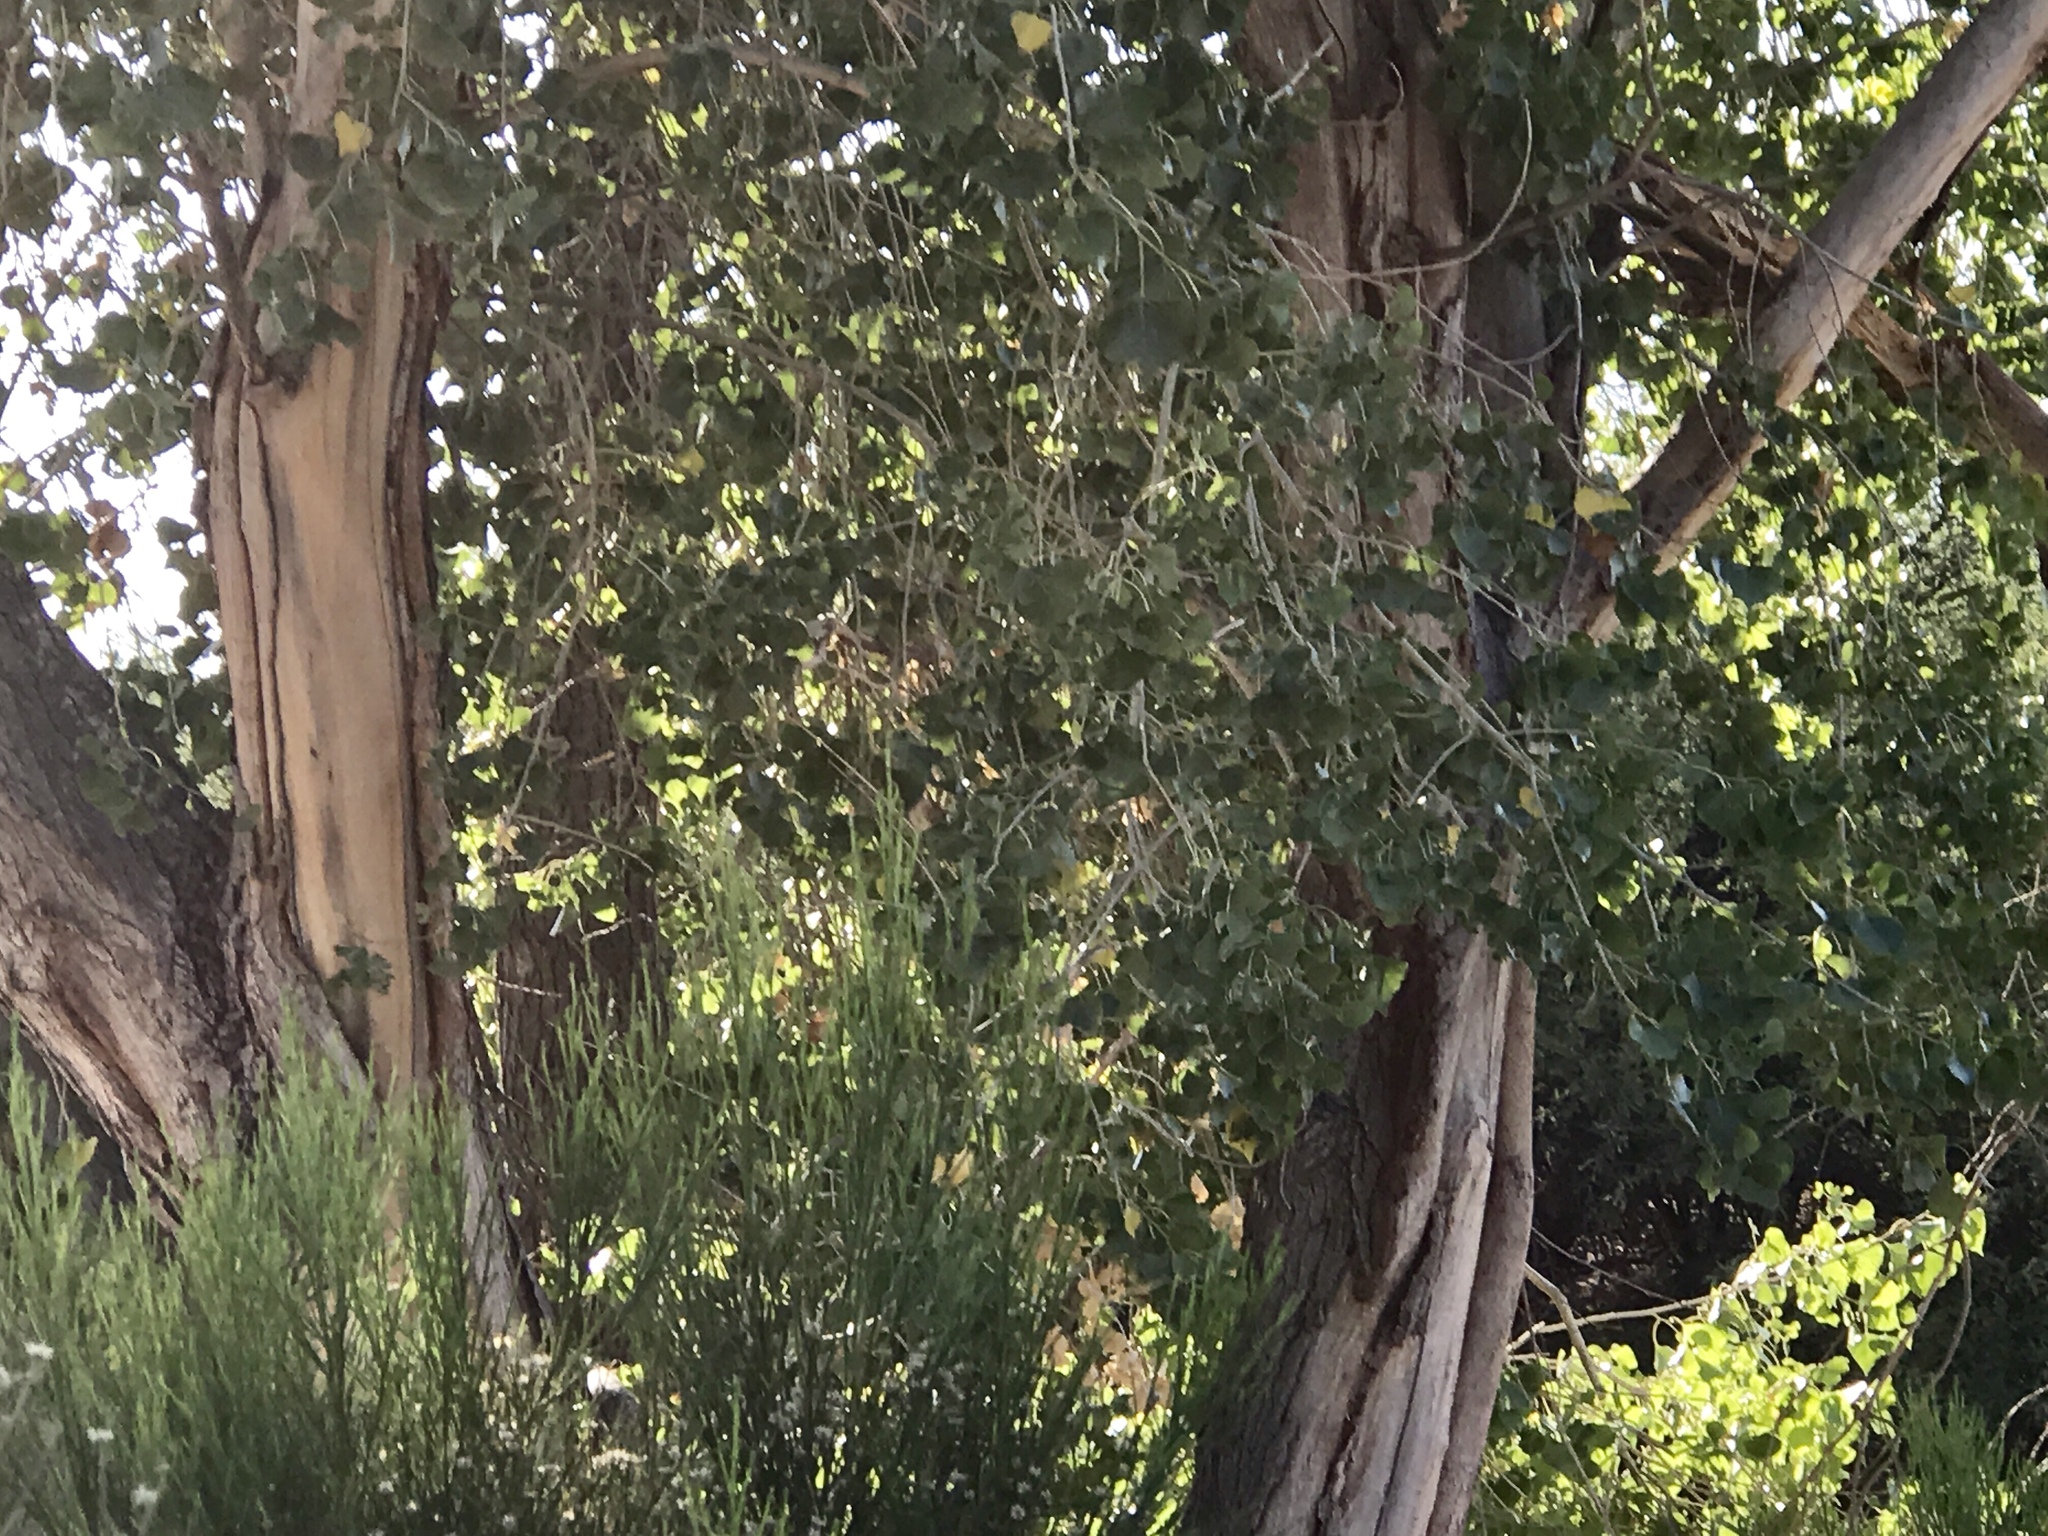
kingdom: Plantae
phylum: Tracheophyta
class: Magnoliopsida
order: Malpighiales
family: Salicaceae
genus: Populus
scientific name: Populus fremontii
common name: Fremont's cottonwood
